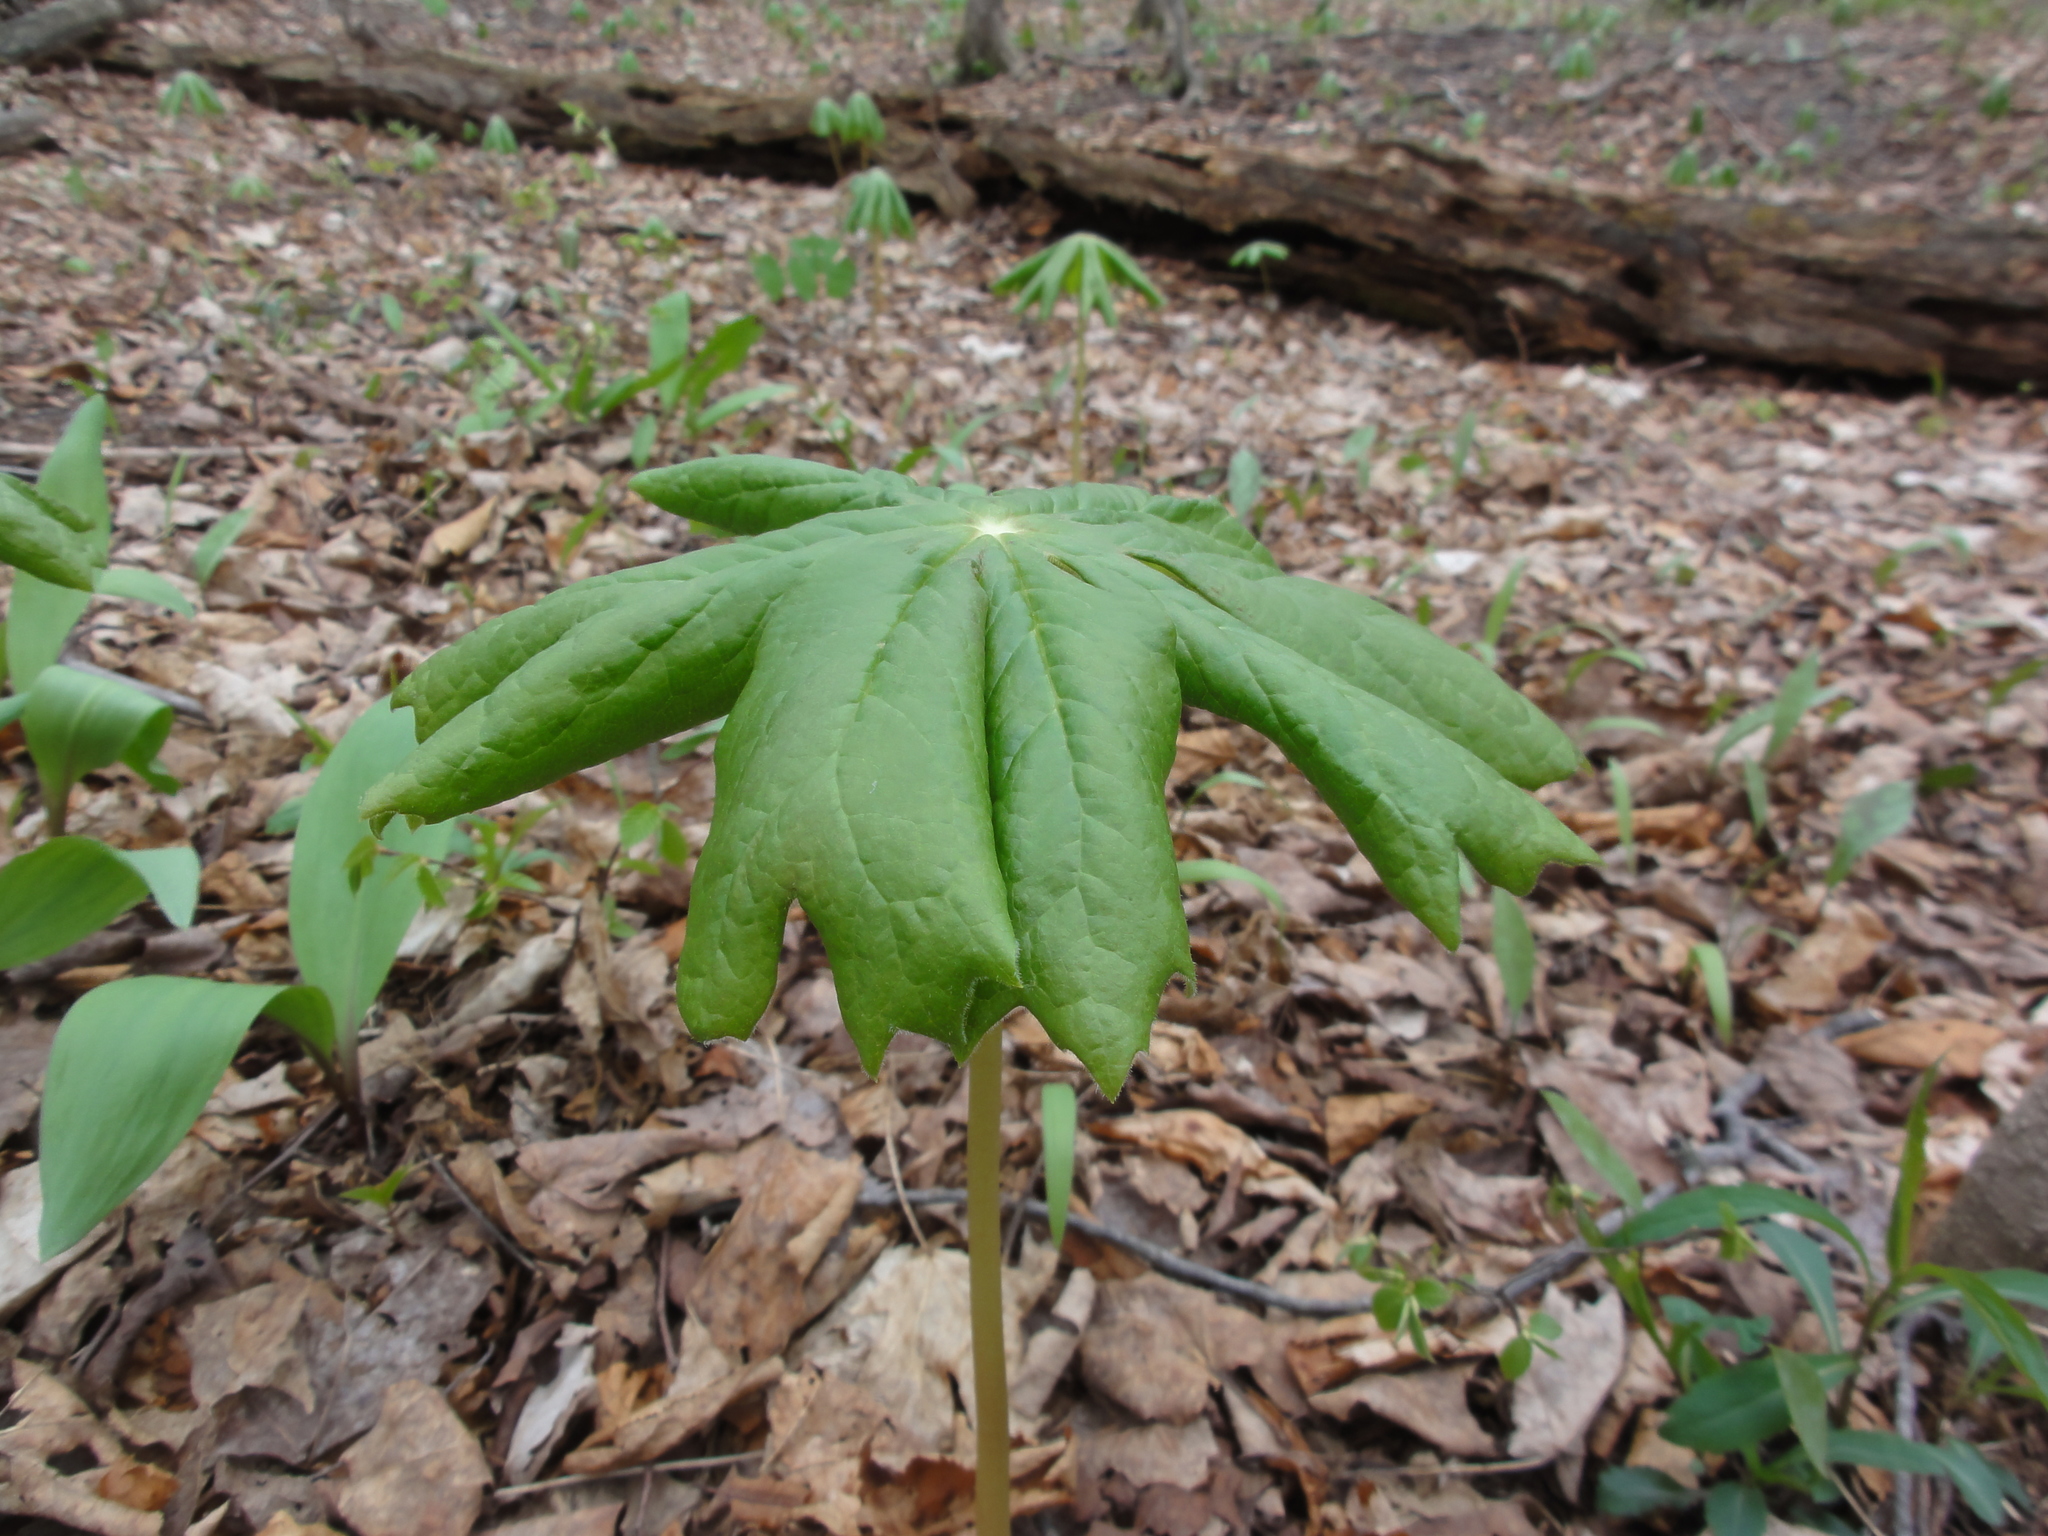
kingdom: Plantae
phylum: Tracheophyta
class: Magnoliopsida
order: Ranunculales
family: Berberidaceae
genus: Podophyllum
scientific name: Podophyllum peltatum
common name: Wild mandrake
